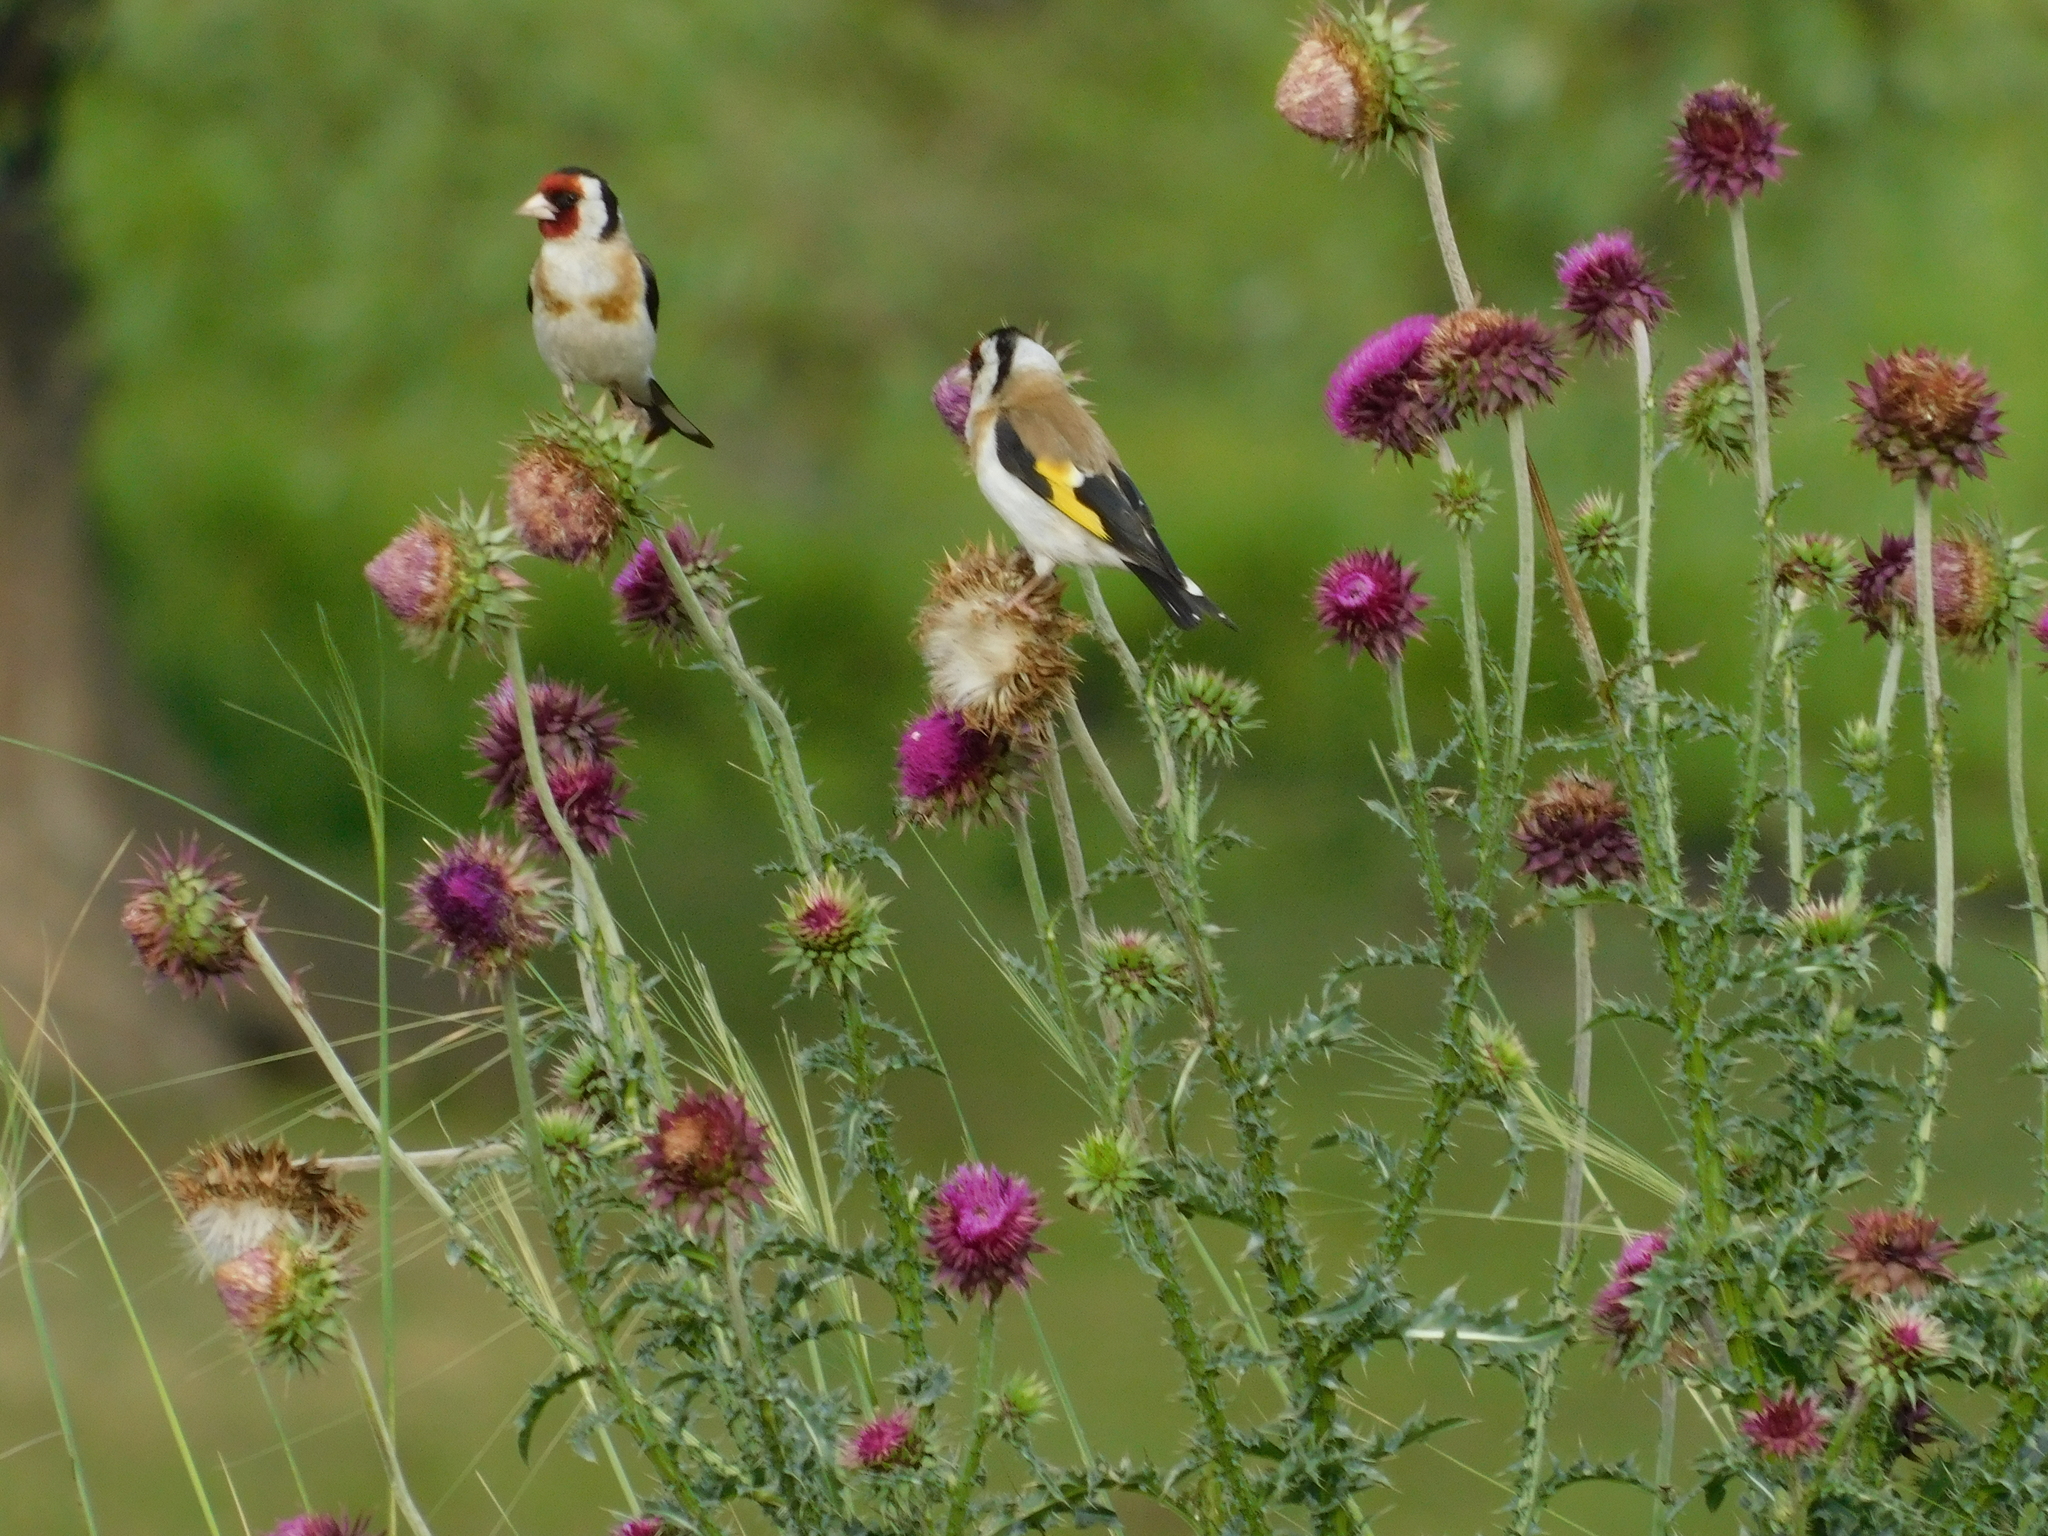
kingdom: Animalia
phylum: Chordata
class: Aves
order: Passeriformes
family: Fringillidae
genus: Carduelis
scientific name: Carduelis carduelis
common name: European goldfinch
